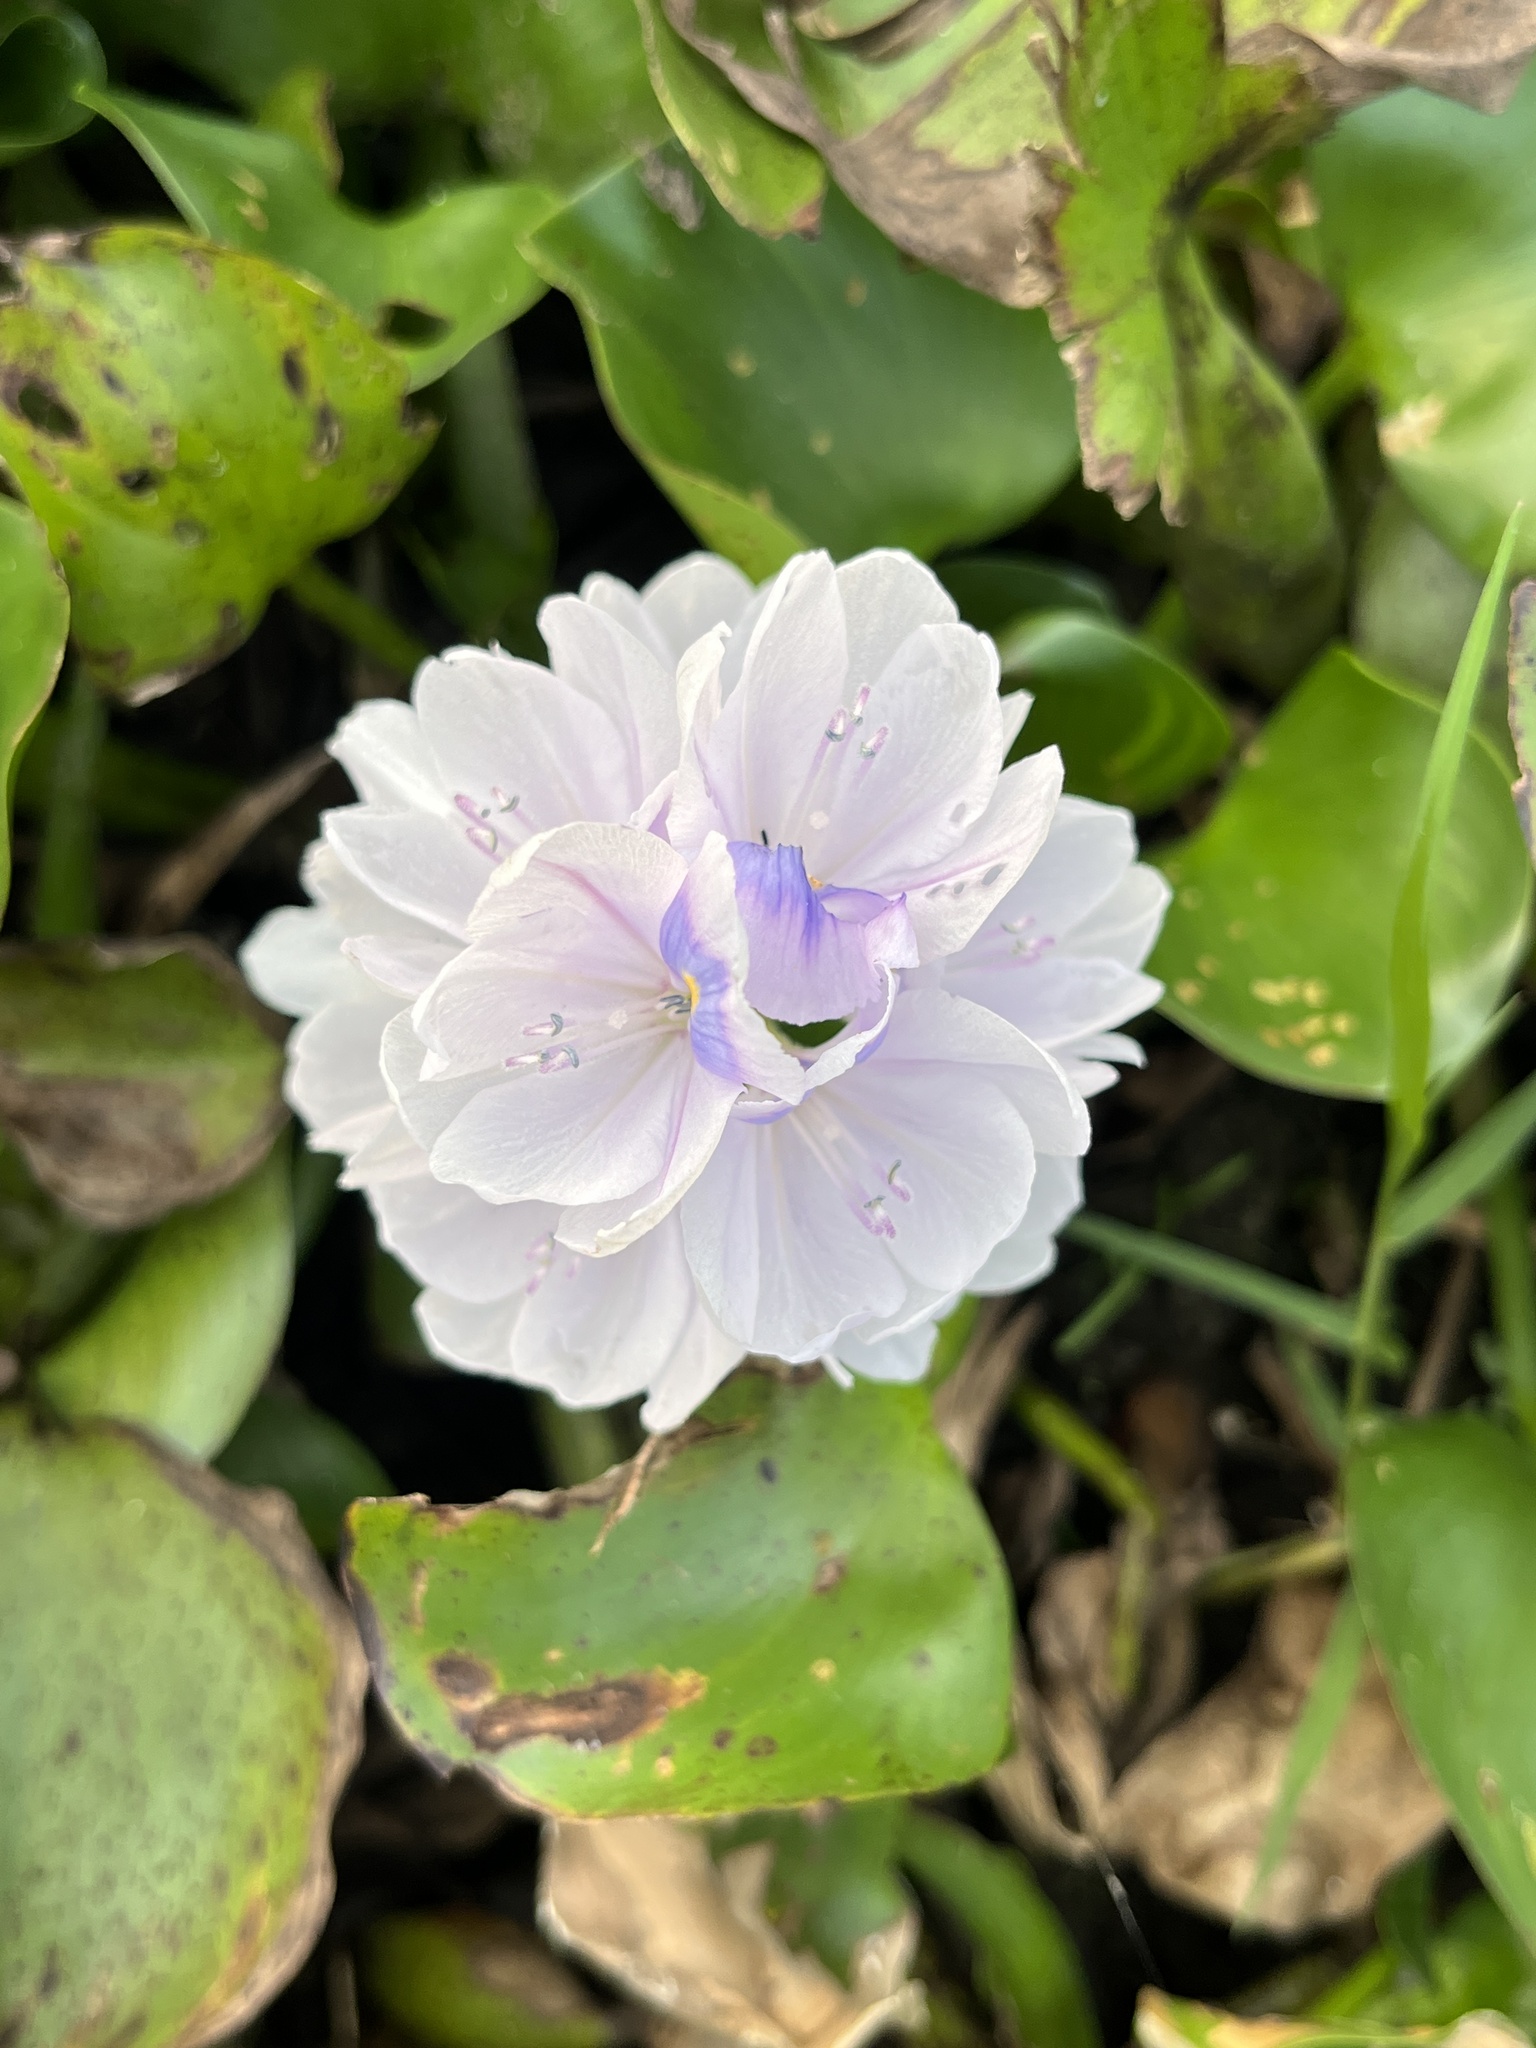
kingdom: Plantae
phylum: Tracheophyta
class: Liliopsida
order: Commelinales
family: Pontederiaceae
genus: Pontederia
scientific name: Pontederia crassipes
